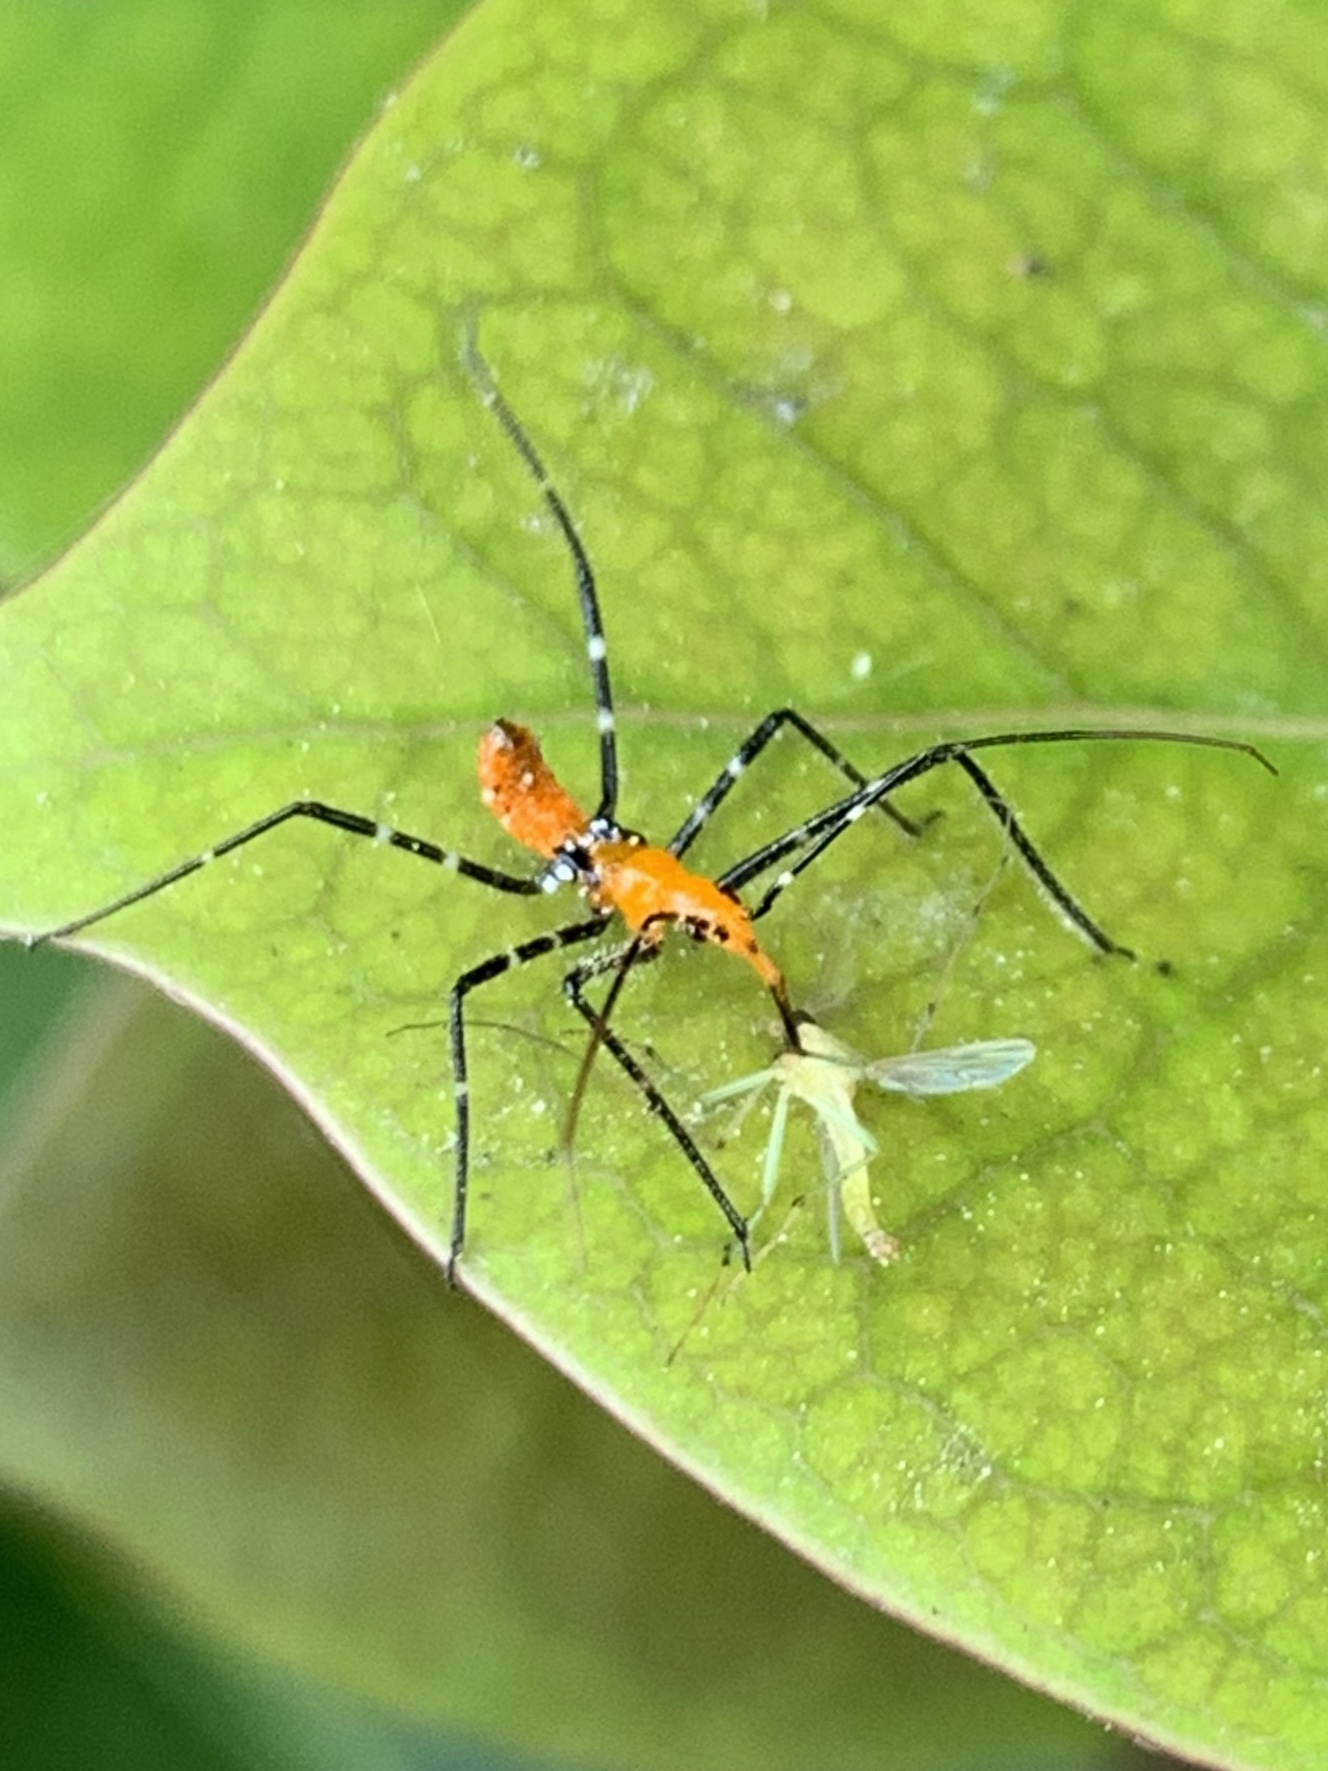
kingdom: Animalia
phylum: Arthropoda
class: Insecta
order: Hemiptera
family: Reduviidae
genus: Zelus
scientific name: Zelus longipes
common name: Milkweed assassin bug
